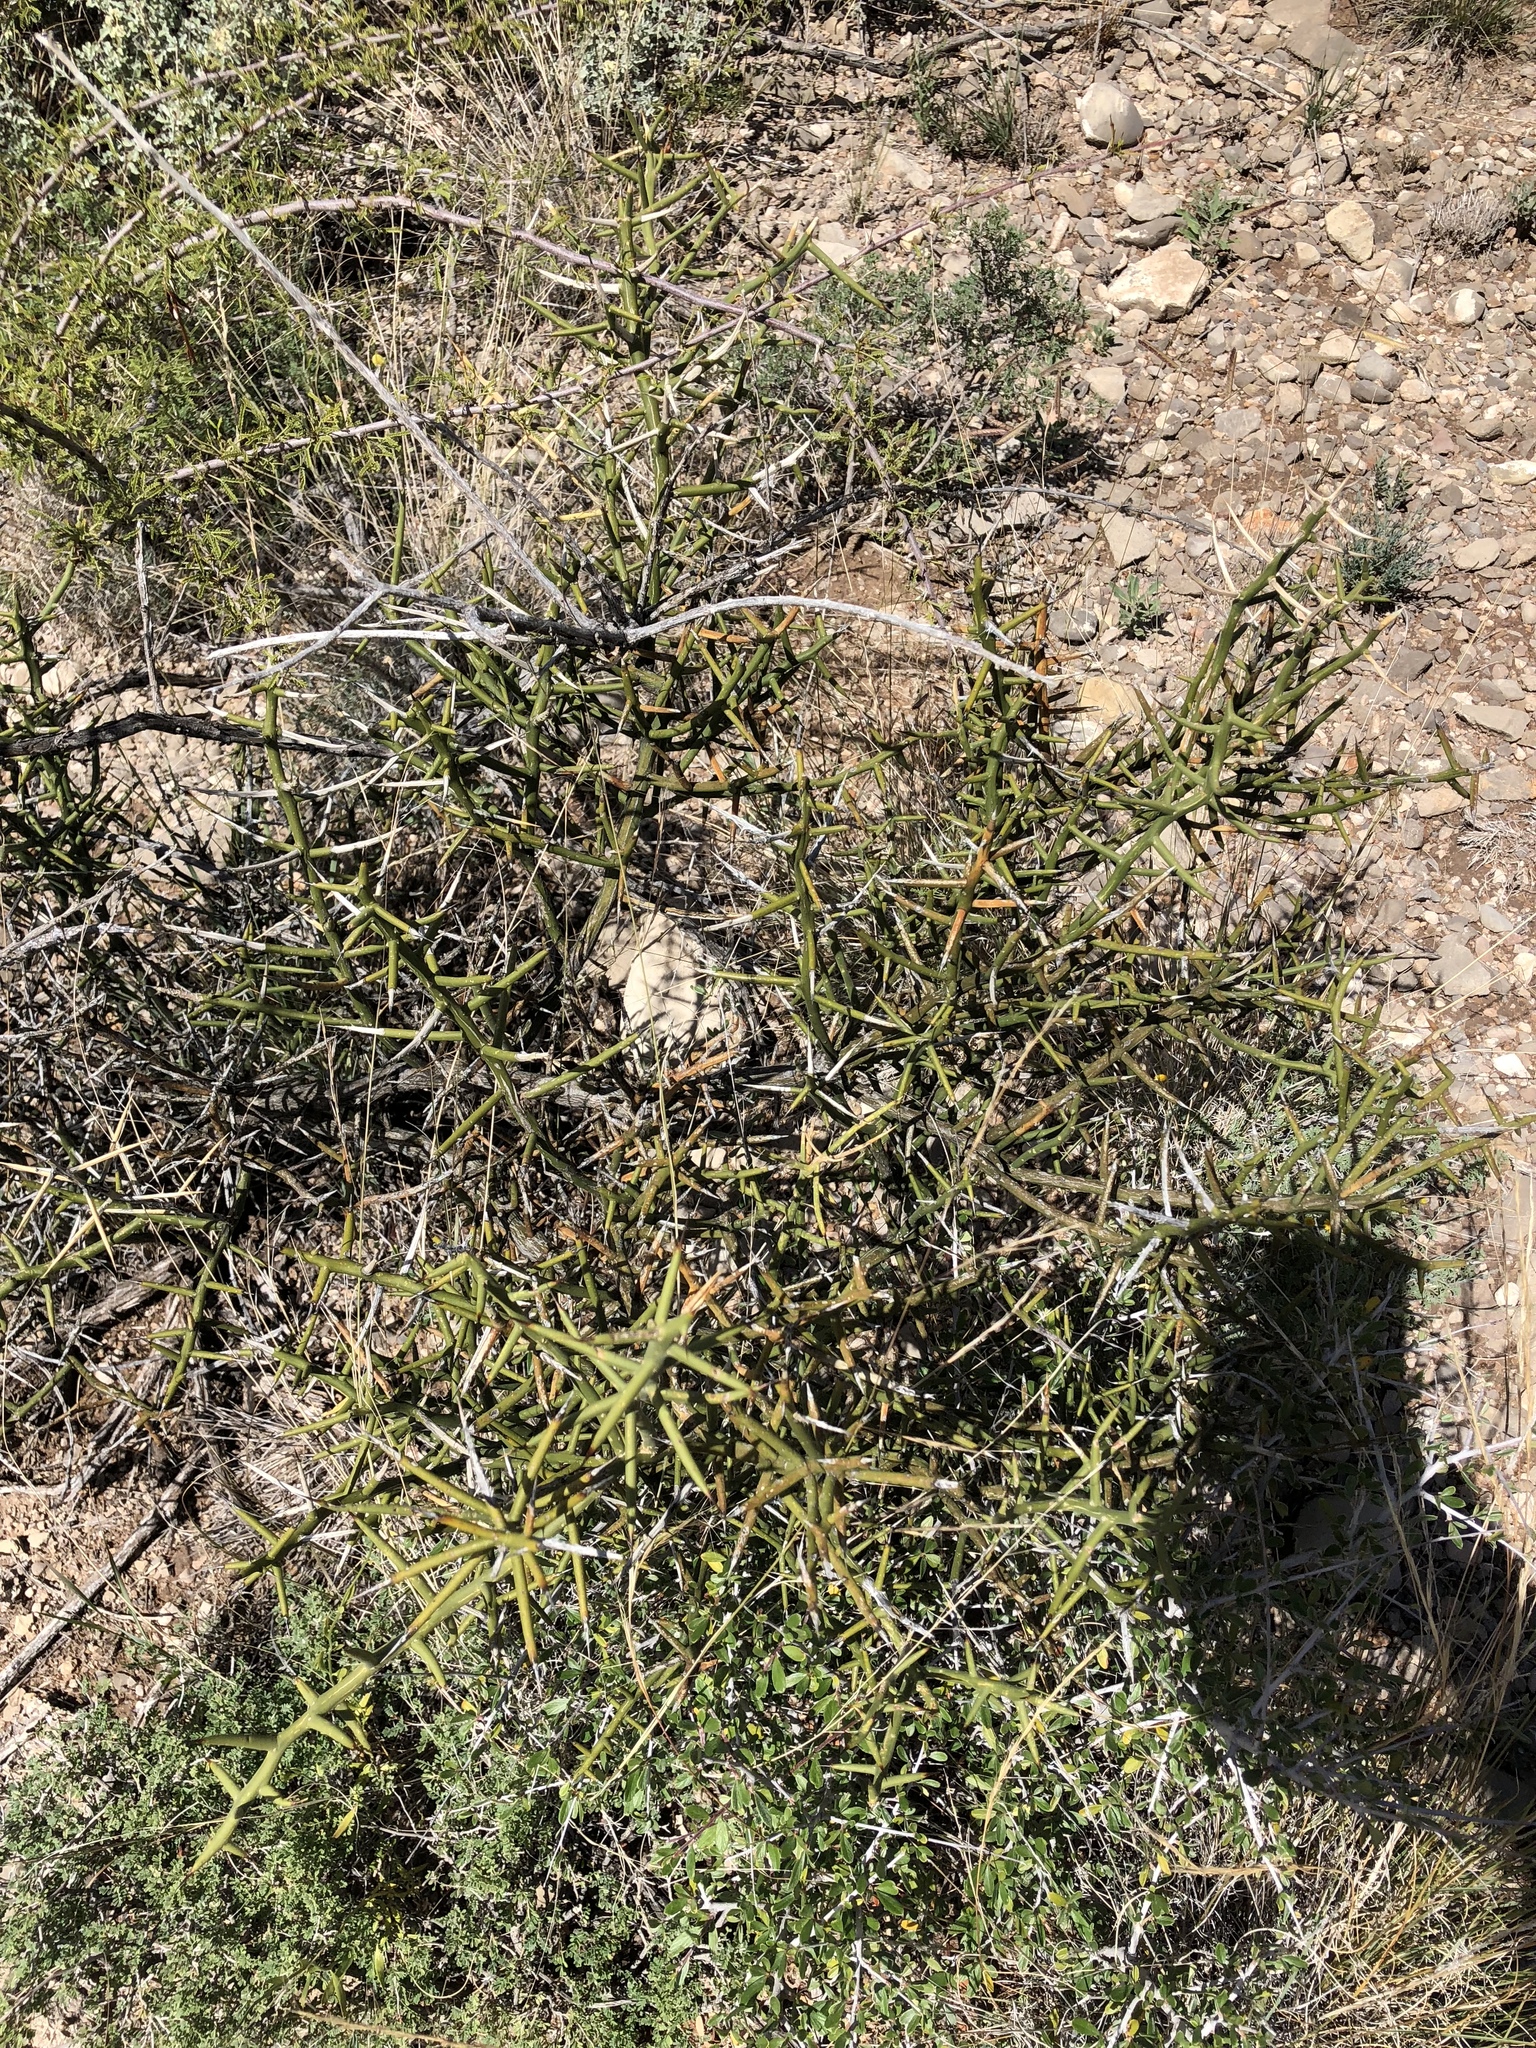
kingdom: Plantae
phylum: Tracheophyta
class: Magnoliopsida
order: Brassicales
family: Koeberliniaceae
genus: Koeberlinia
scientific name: Koeberlinia spinosa
